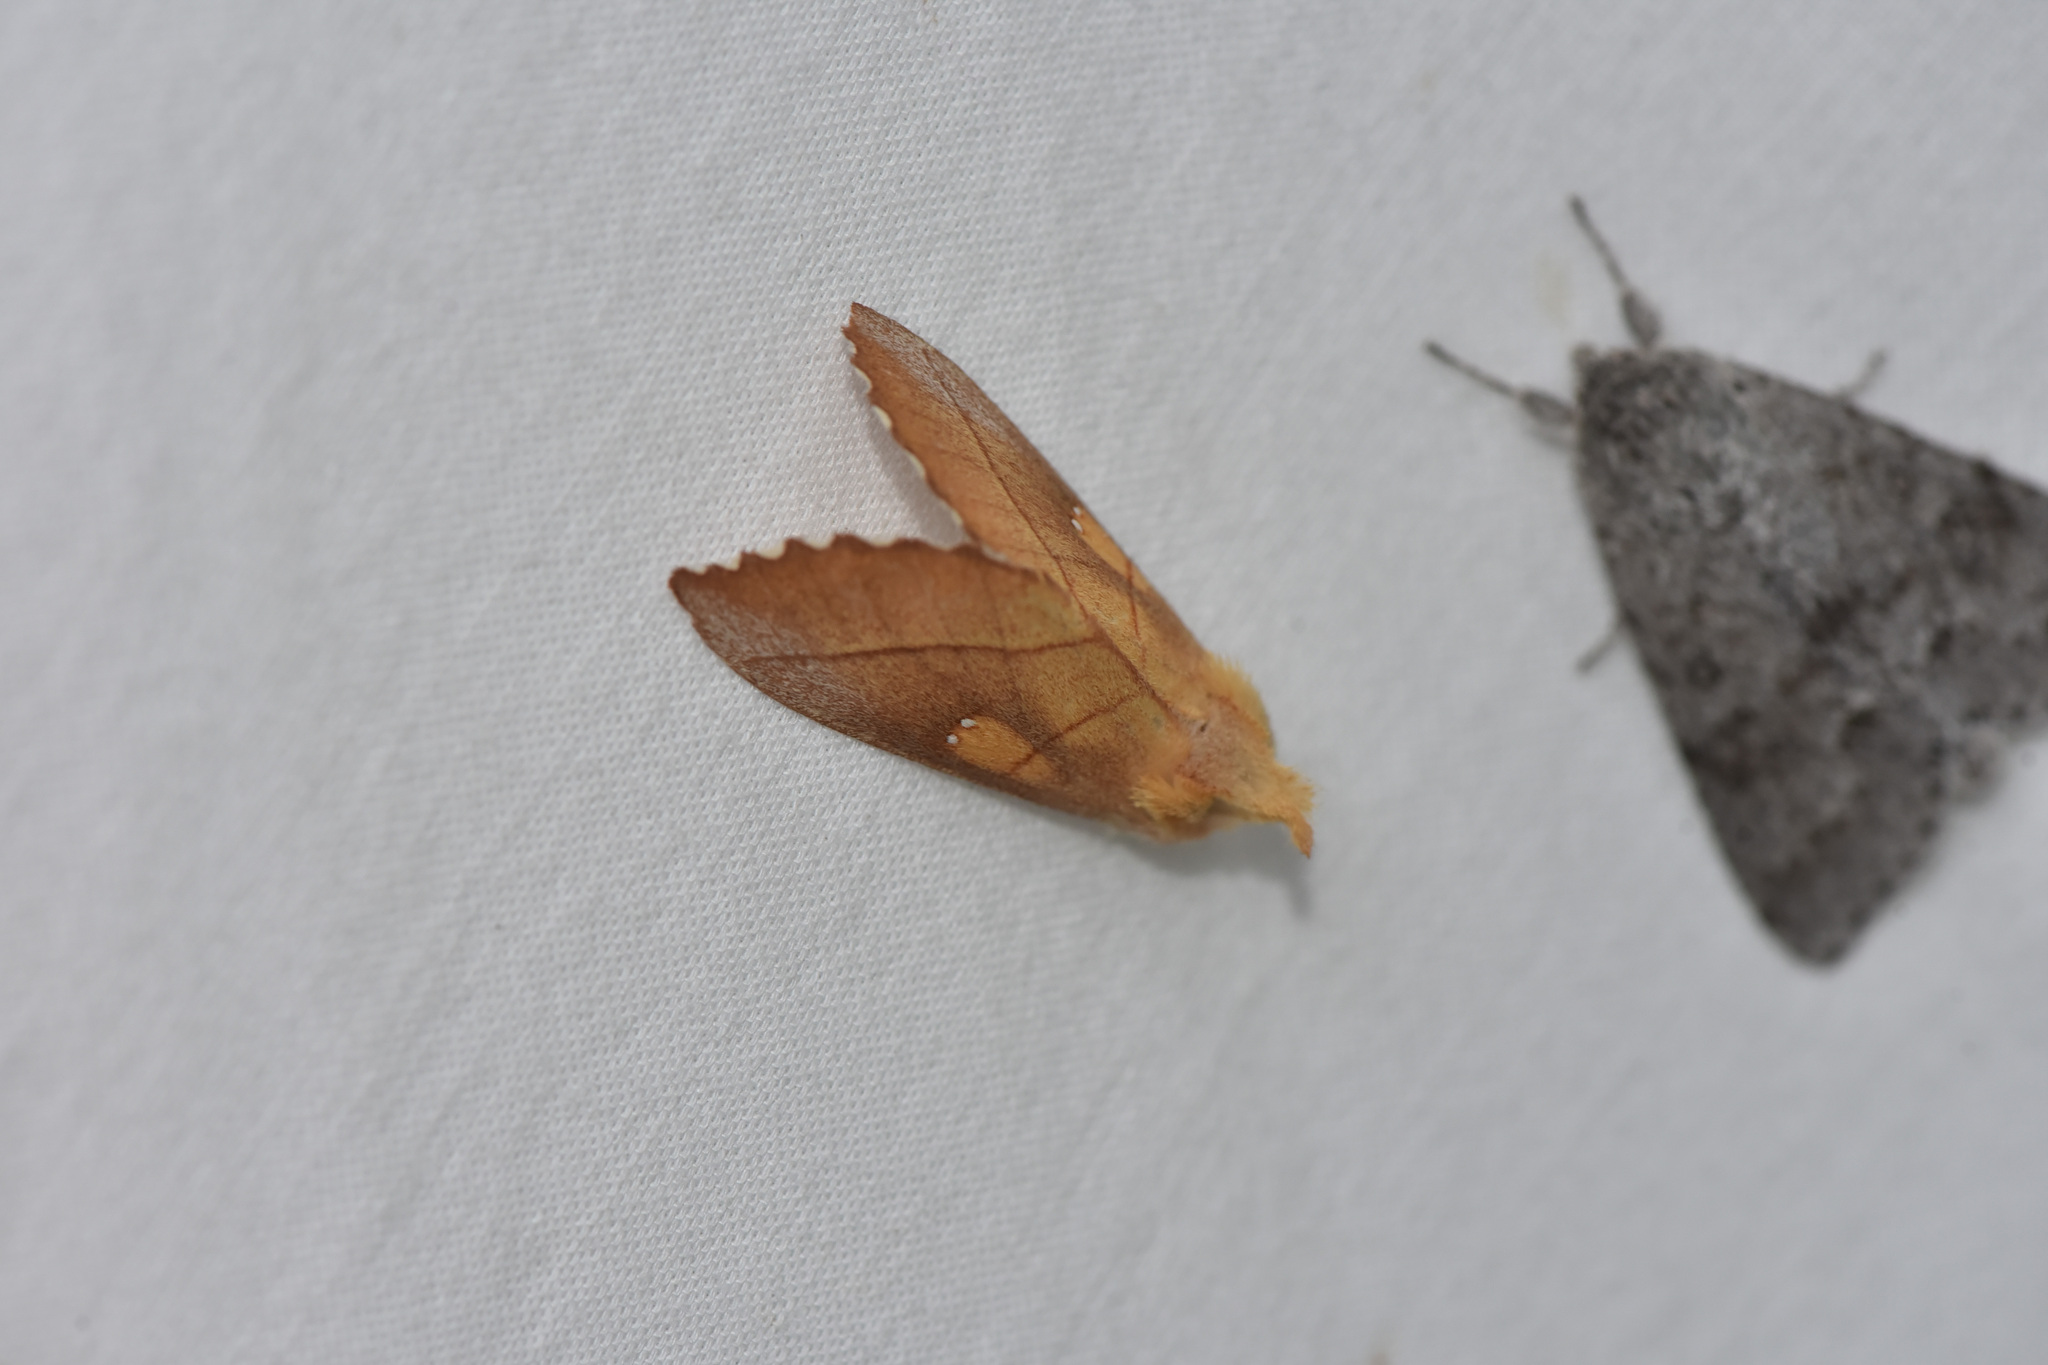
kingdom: Animalia
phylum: Arthropoda
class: Insecta
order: Lepidoptera
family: Notodontidae
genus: Nadata
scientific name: Nadata gibbosa
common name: White-dotted prominent
